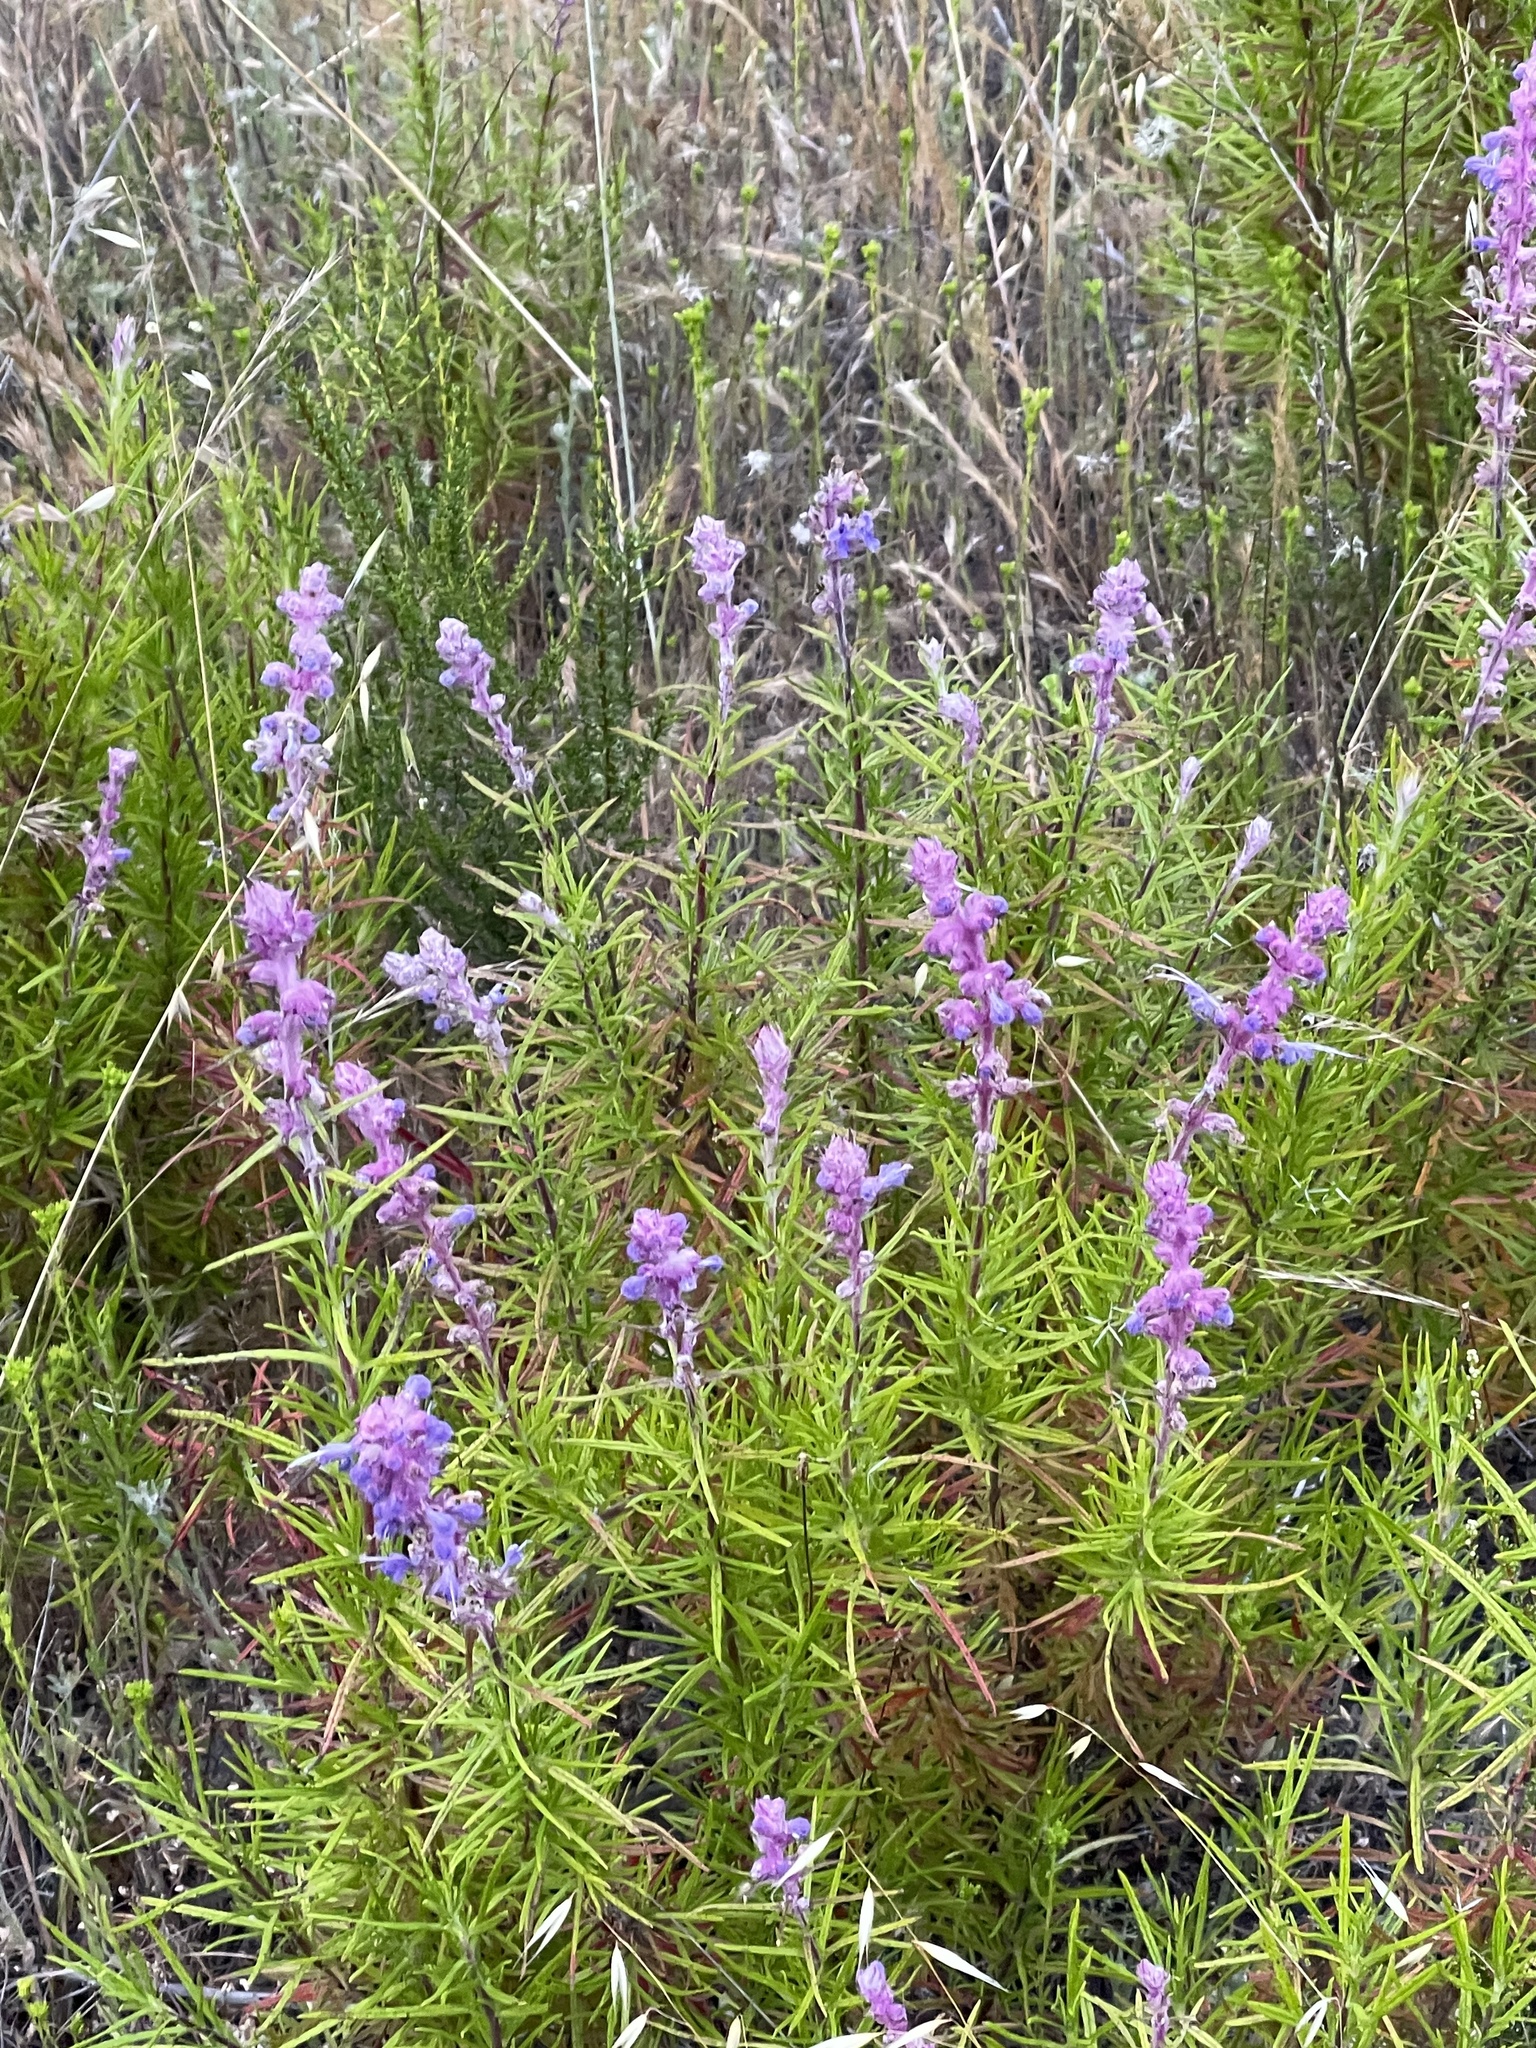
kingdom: Plantae
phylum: Tracheophyta
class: Magnoliopsida
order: Lamiales
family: Lamiaceae
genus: Trichostema
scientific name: Trichostema lanatum
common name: Woolly bluecurls
